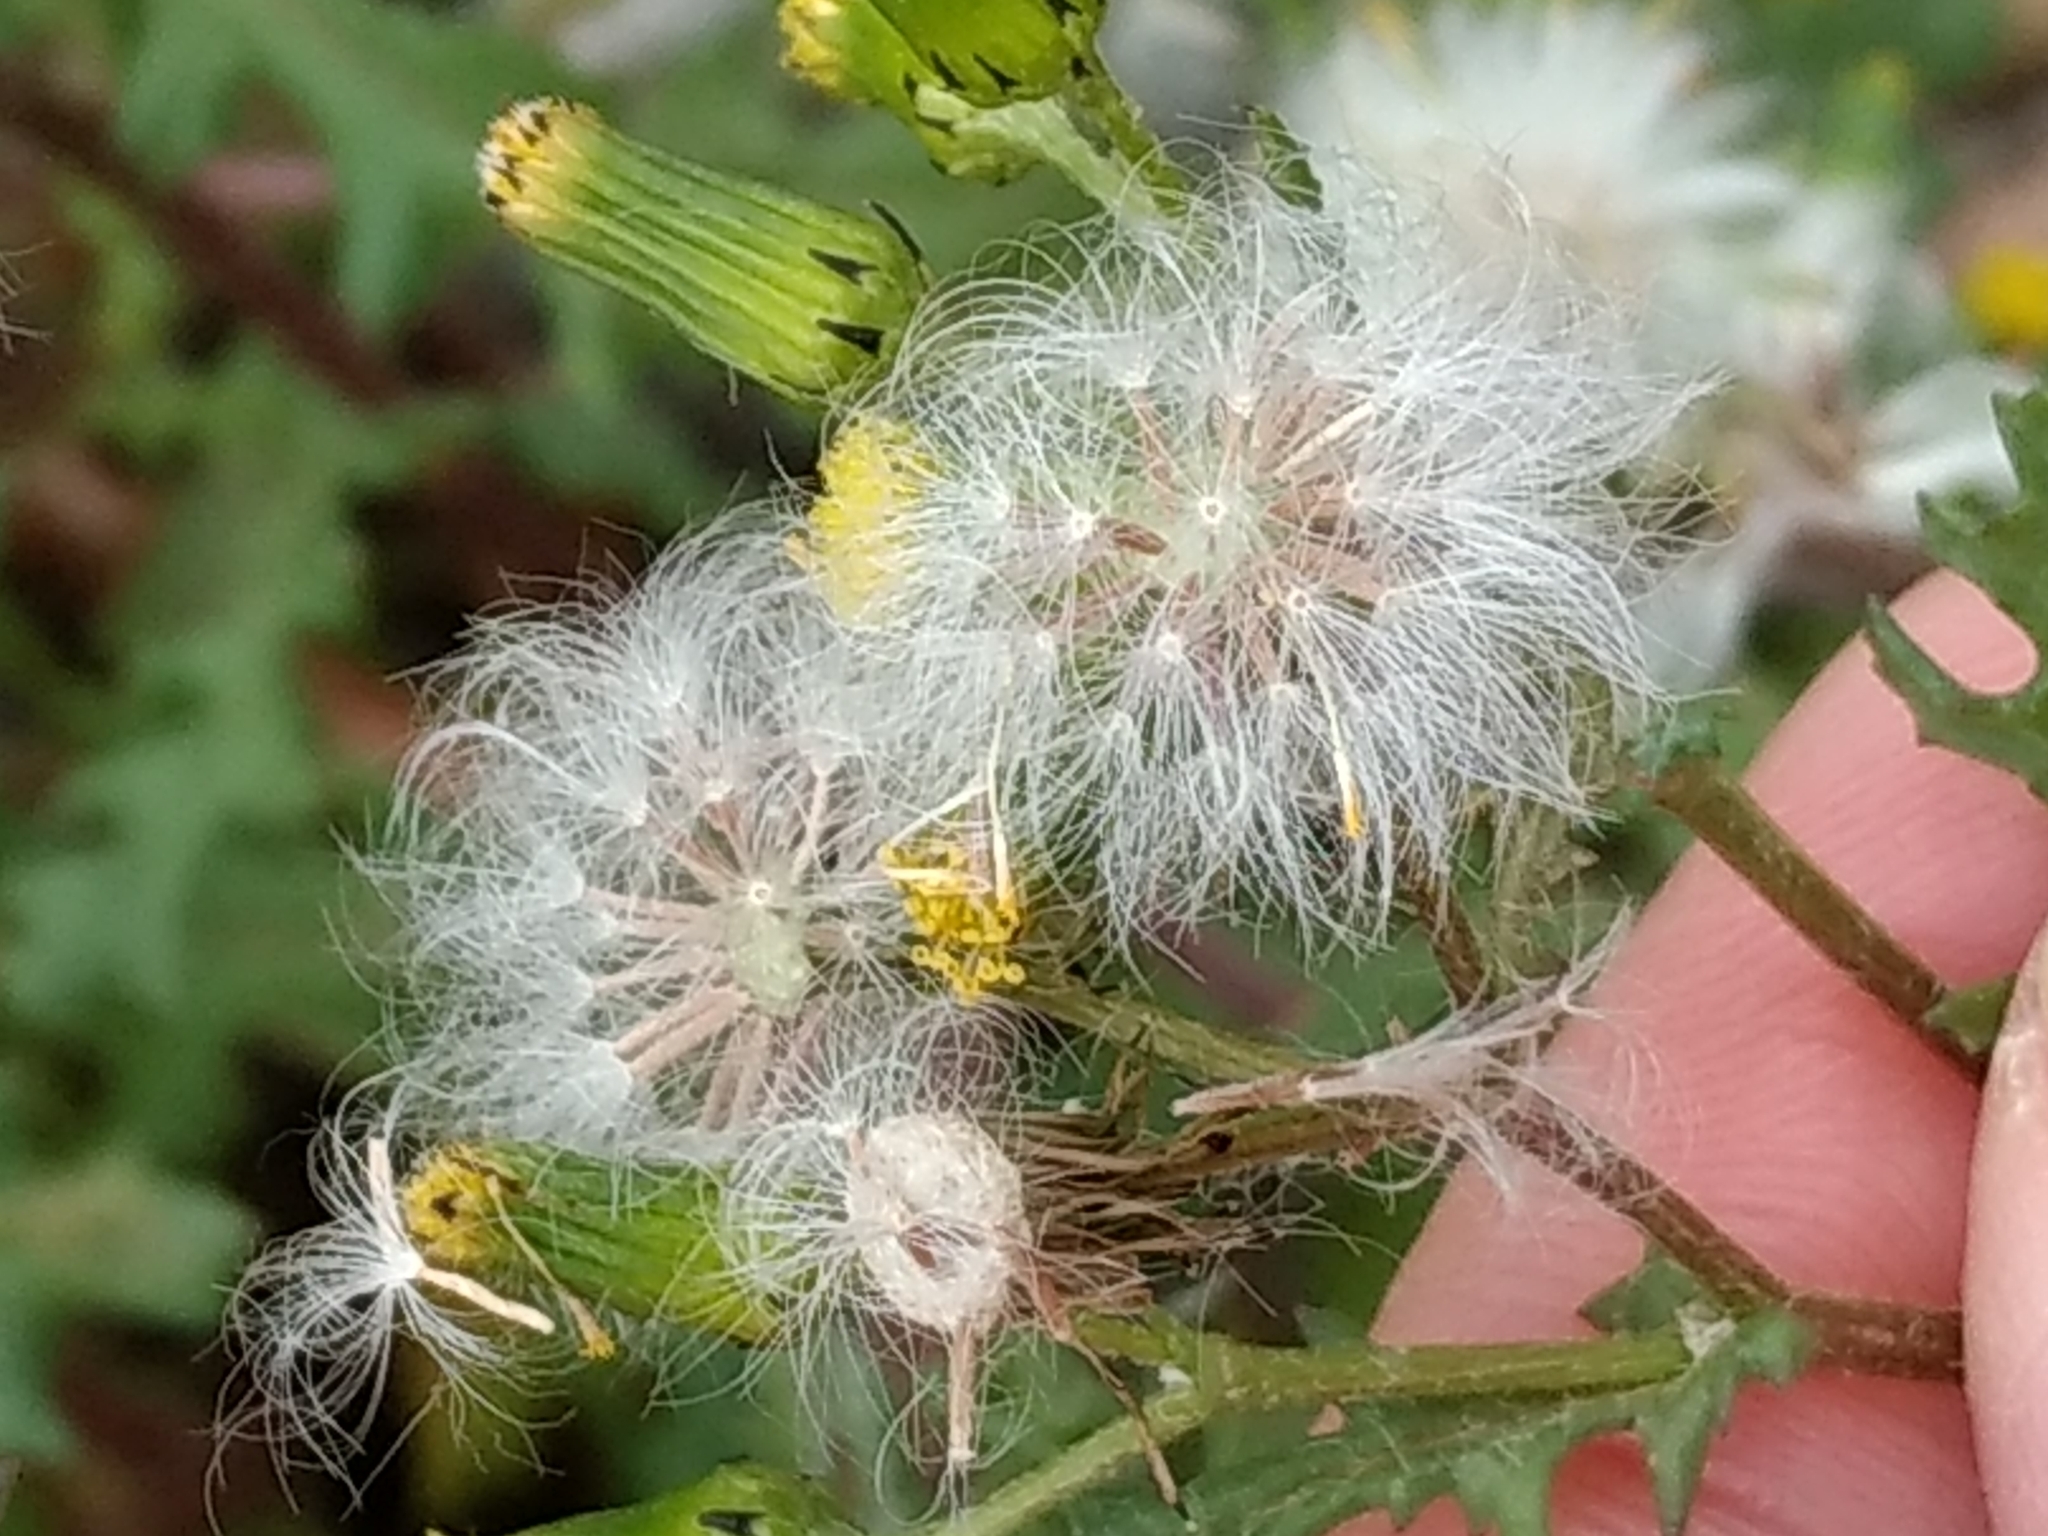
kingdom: Plantae
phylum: Tracheophyta
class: Magnoliopsida
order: Asterales
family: Asteraceae
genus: Senecio
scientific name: Senecio vulgaris
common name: Old-man-in-the-spring
